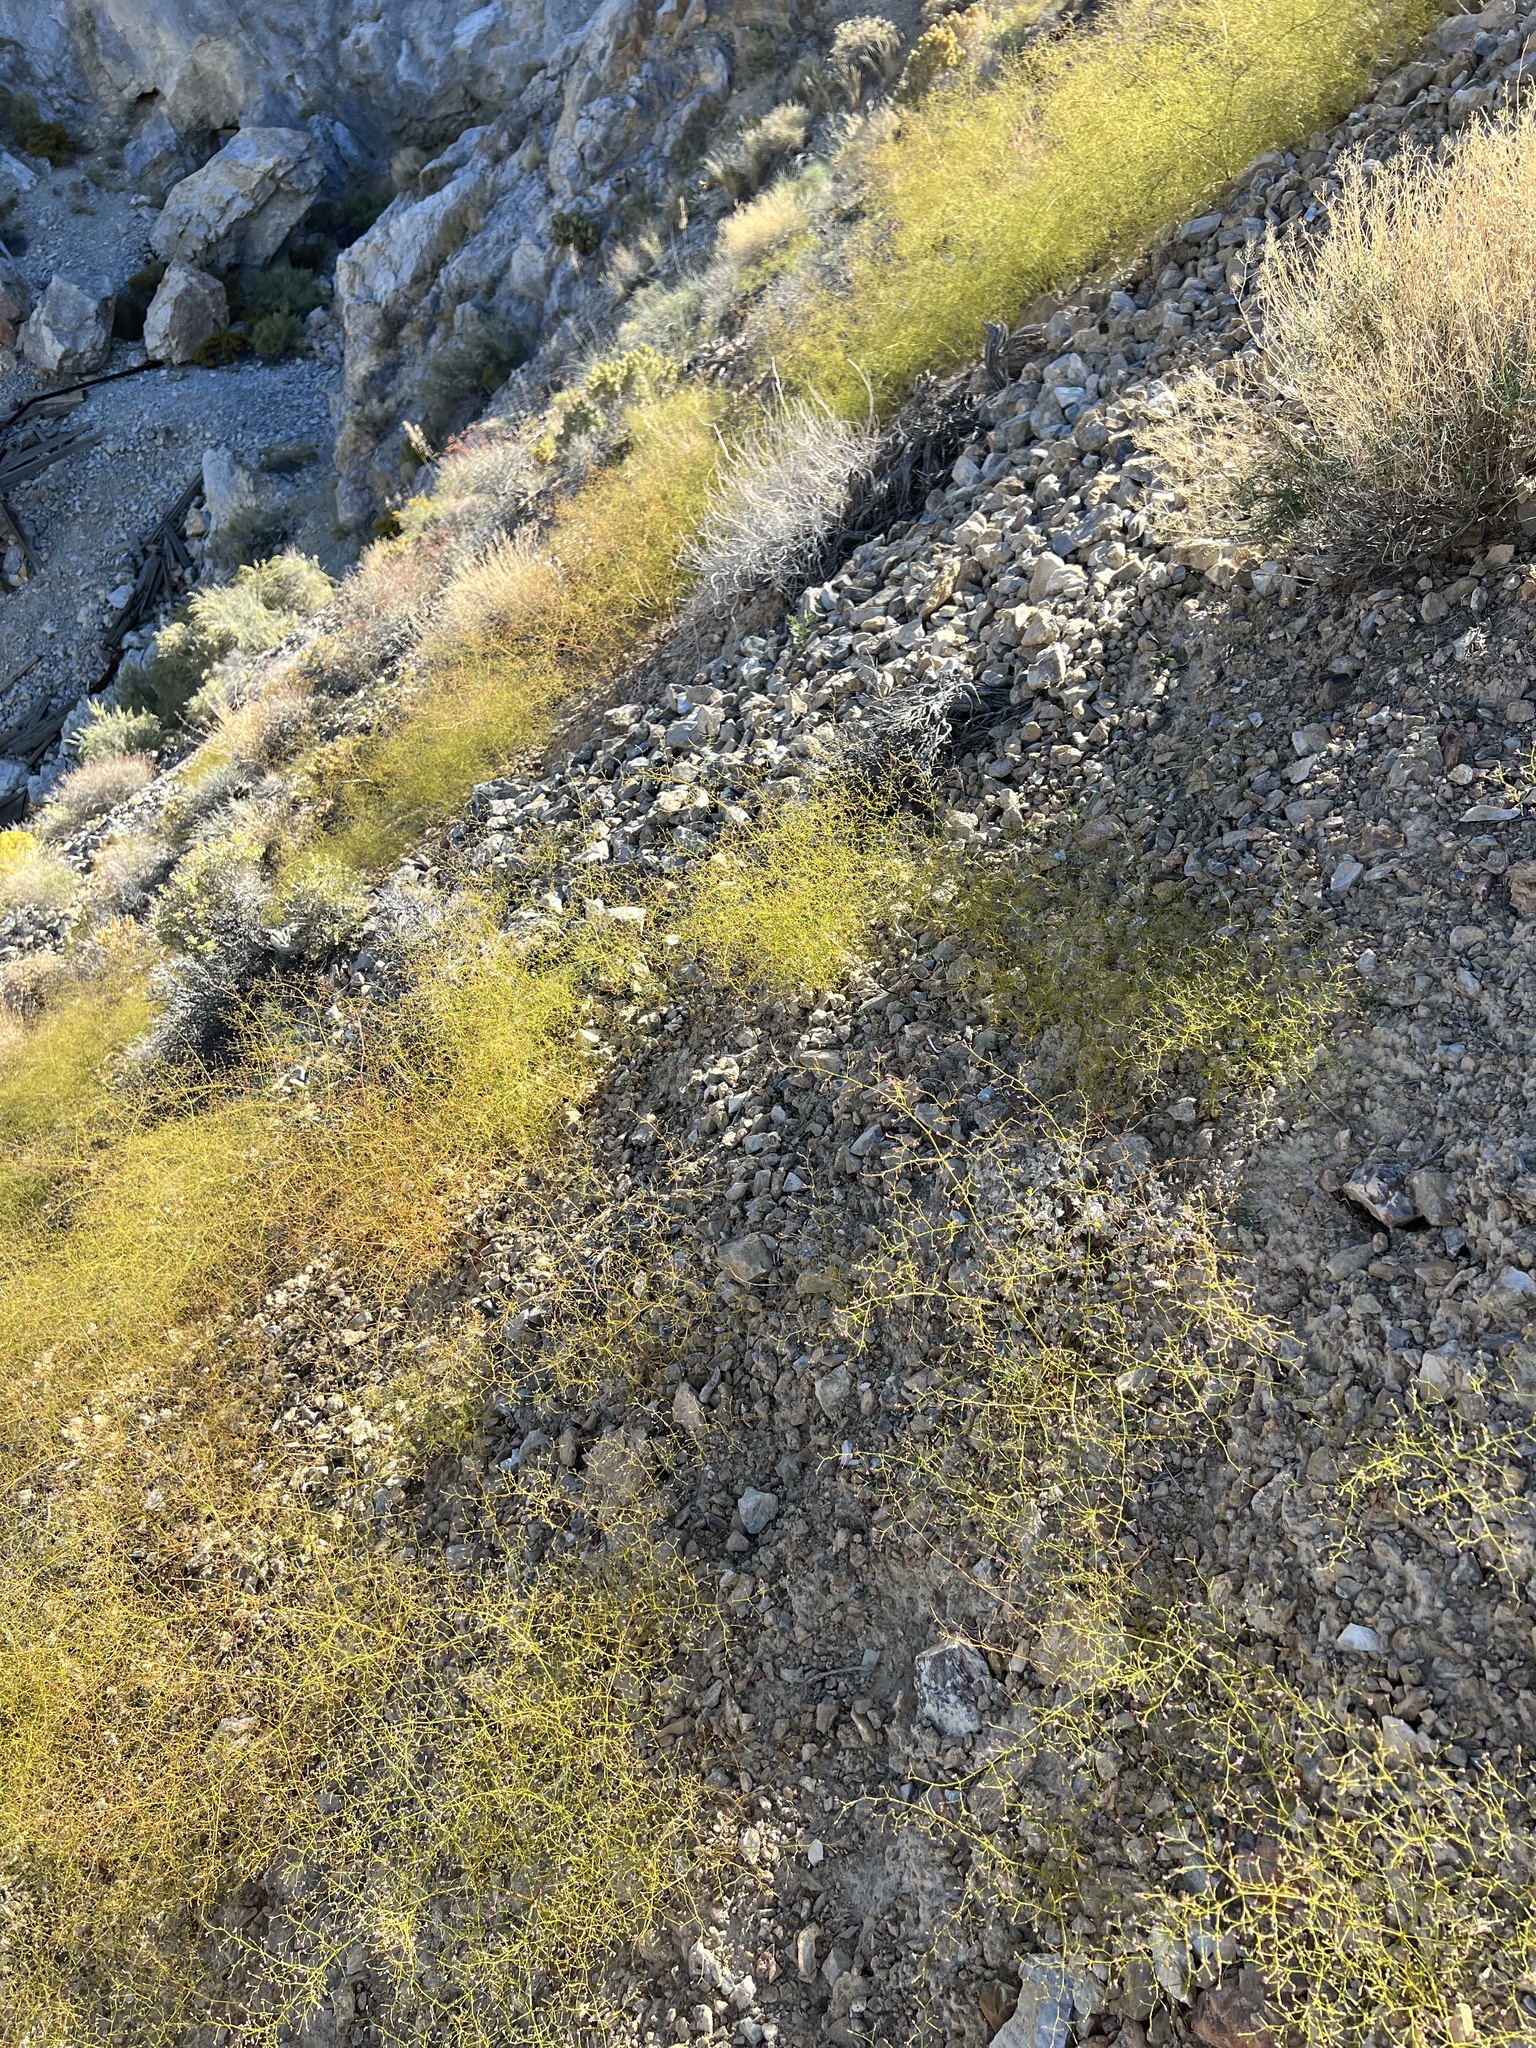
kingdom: Plantae
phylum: Tracheophyta
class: Magnoliopsida
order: Caryophyllales
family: Polygonaceae
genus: Eriogonum
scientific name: Eriogonum glandulosum
